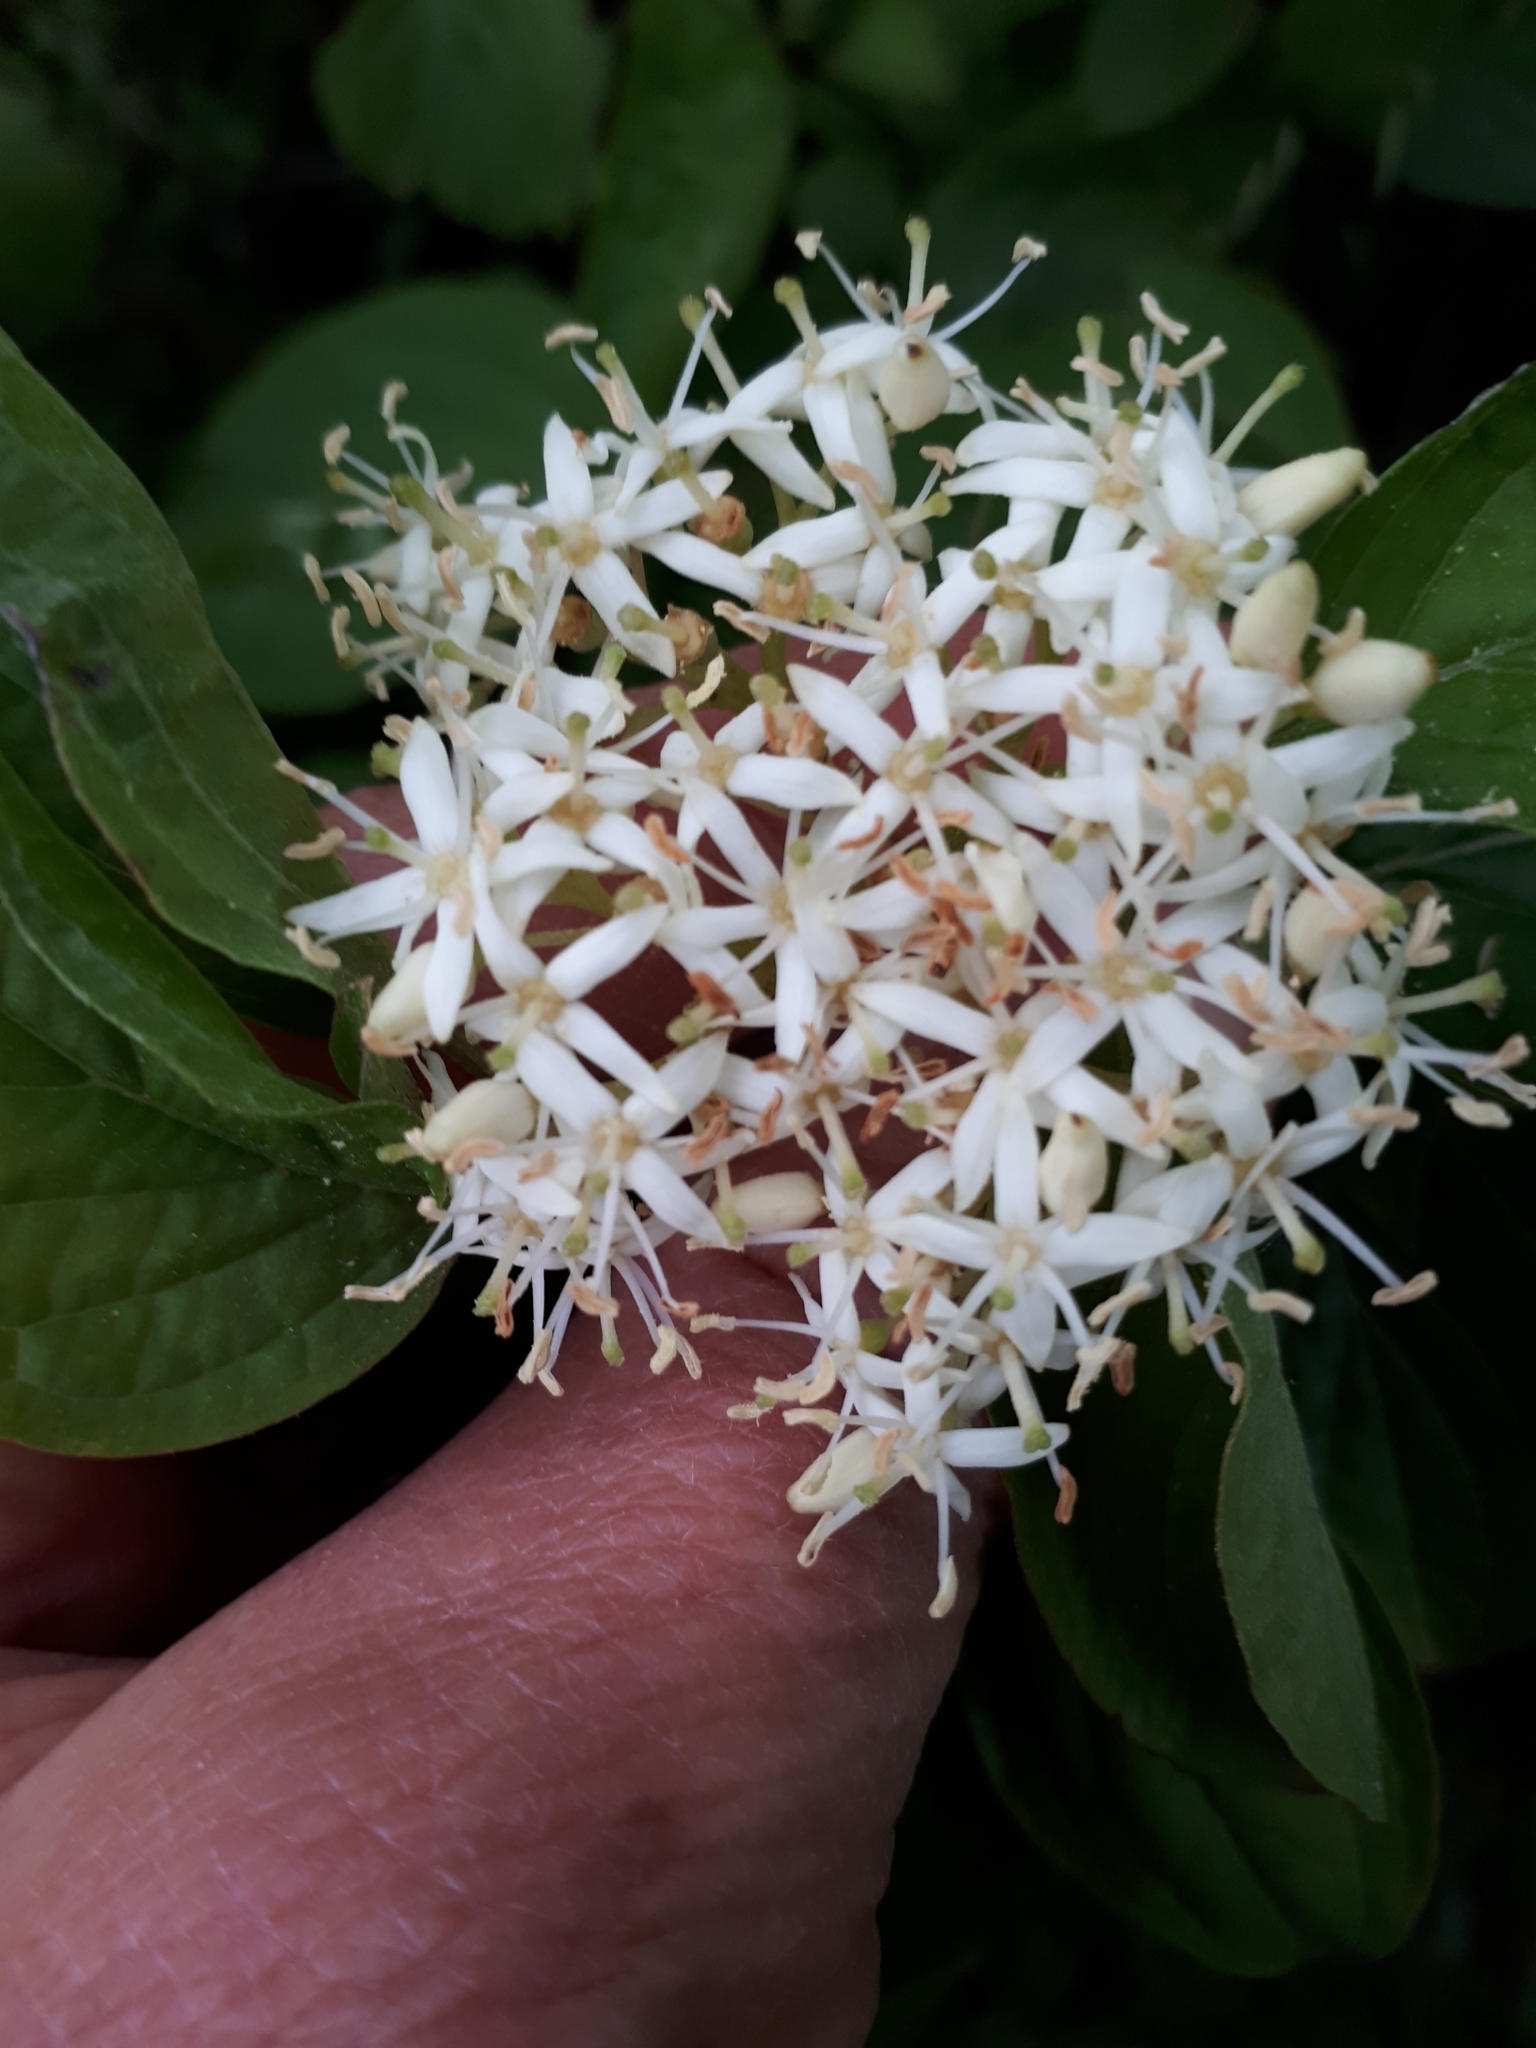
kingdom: Plantae
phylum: Tracheophyta
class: Magnoliopsida
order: Cornales
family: Cornaceae
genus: Cornus
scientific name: Cornus sanguinea
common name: Dogwood
